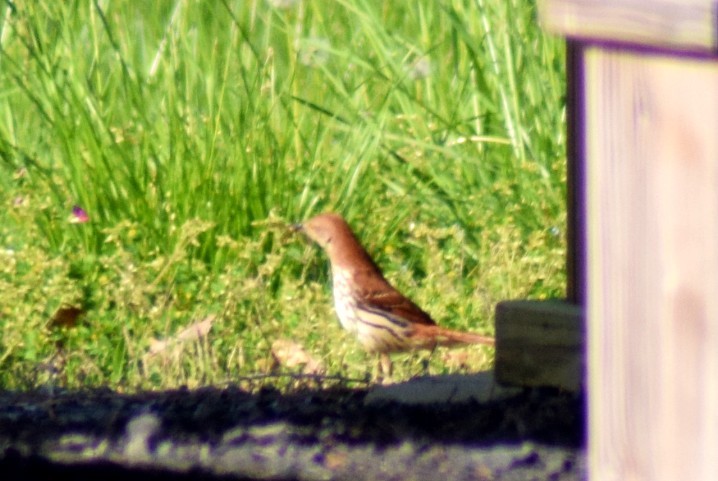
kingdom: Animalia
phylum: Chordata
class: Aves
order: Passeriformes
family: Mimidae
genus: Toxostoma
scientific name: Toxostoma rufum
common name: Brown thrasher
